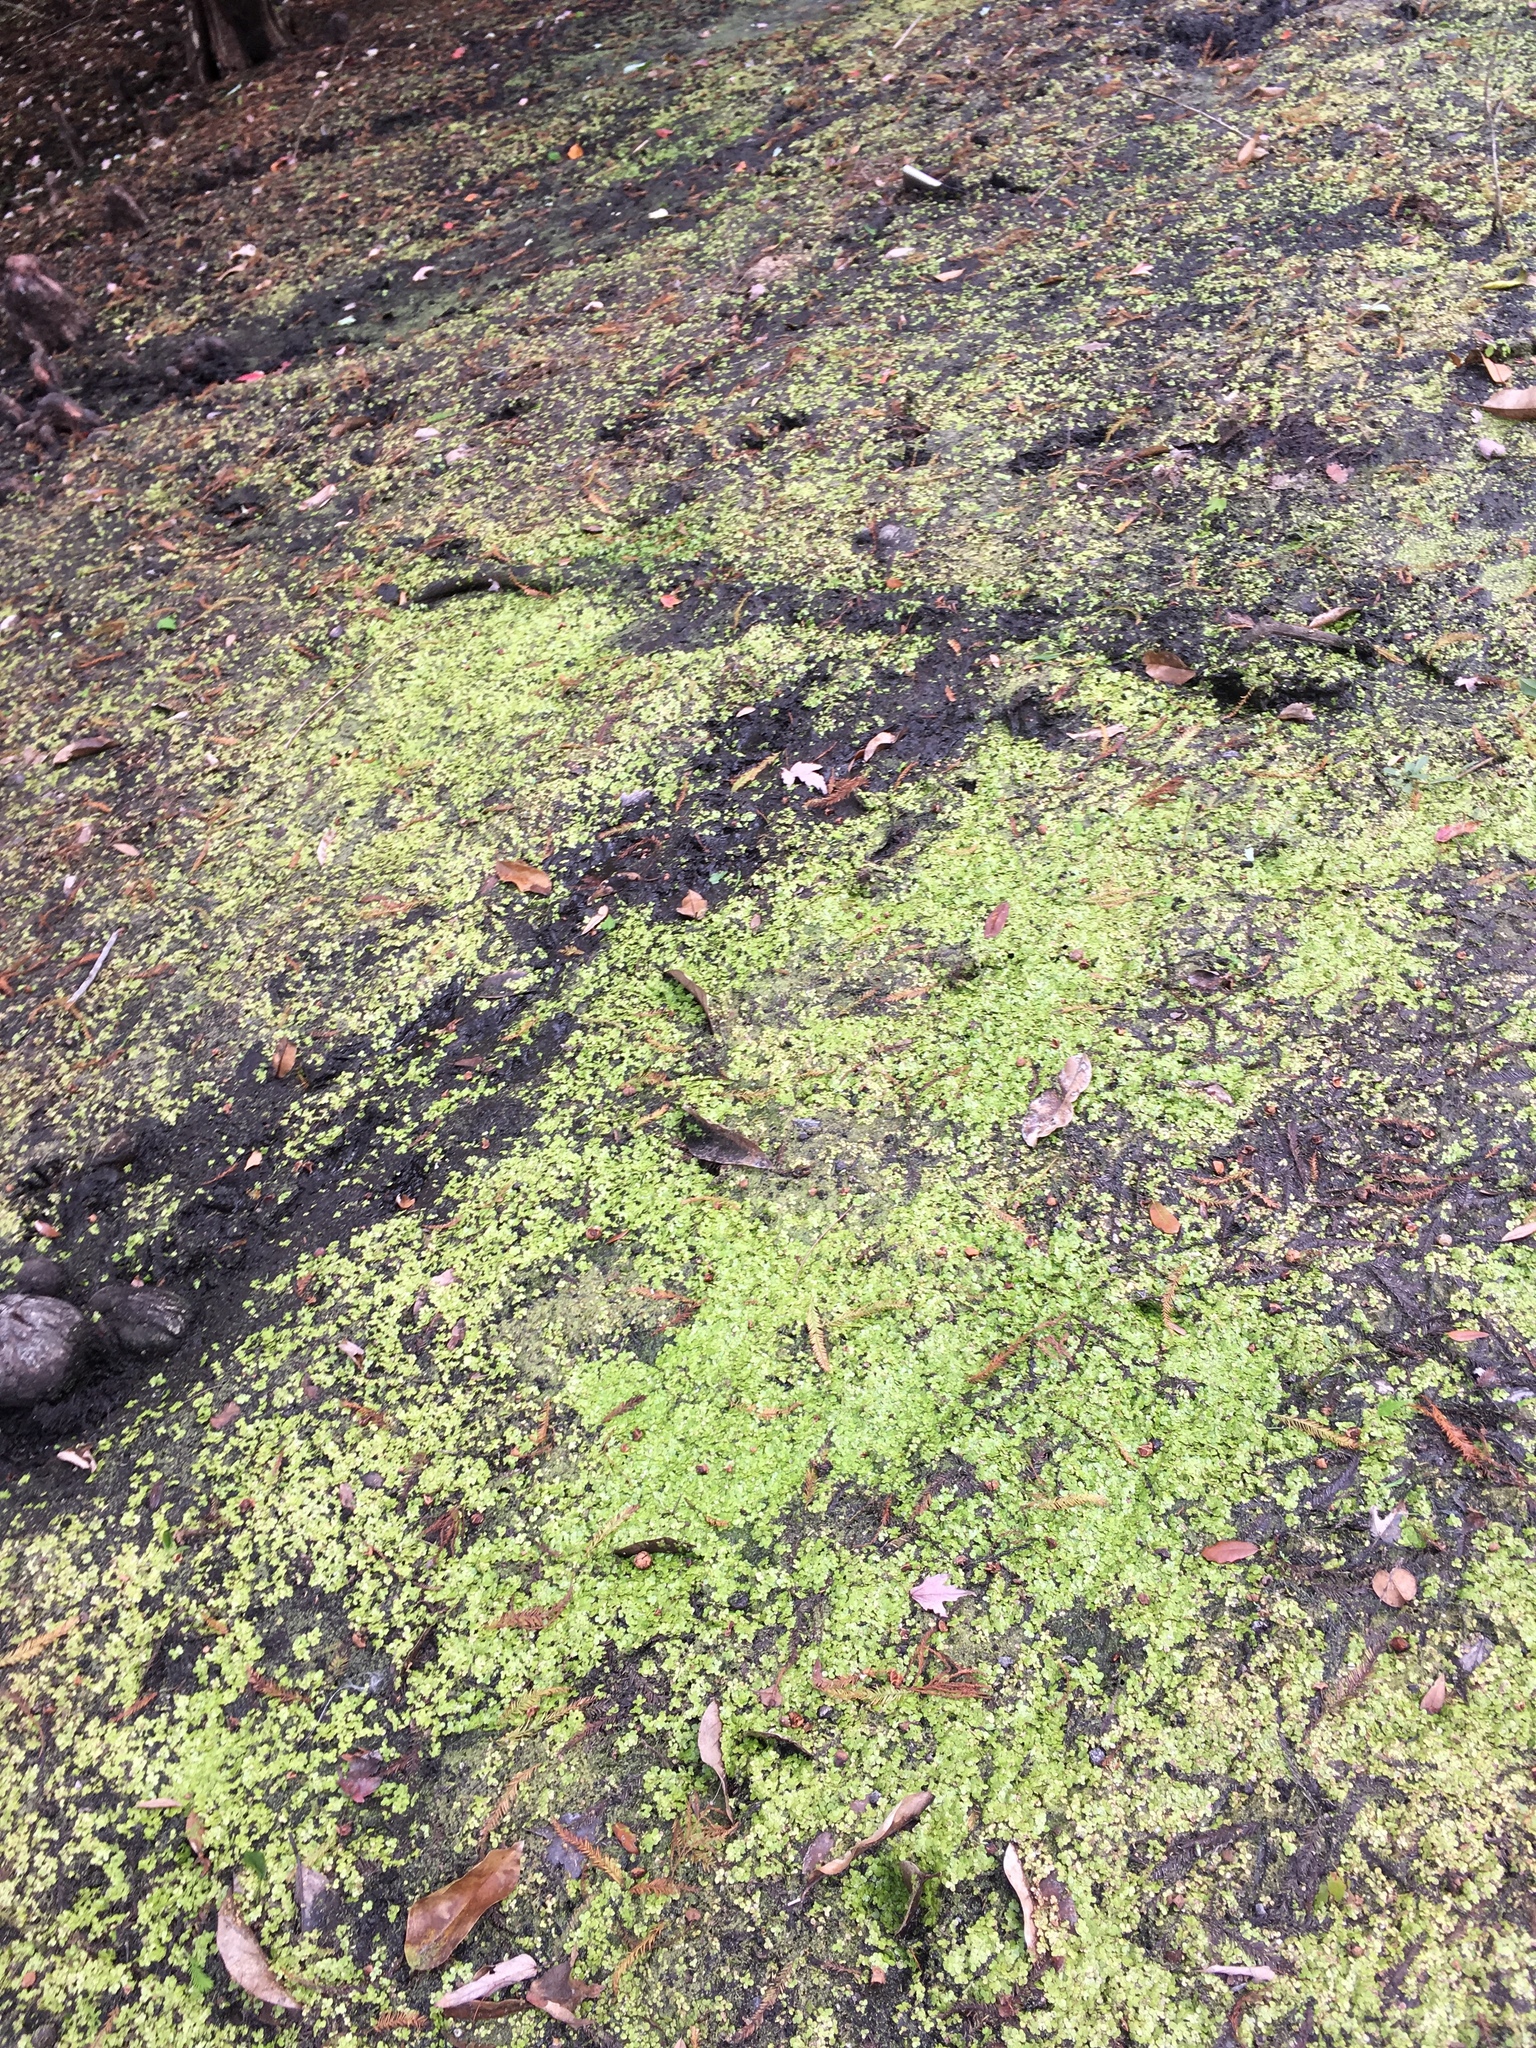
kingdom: Plantae
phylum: Tracheophyta
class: Liliopsida
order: Alismatales
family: Araceae
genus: Spirodela
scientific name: Spirodela polyrhiza
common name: Great duckweed
